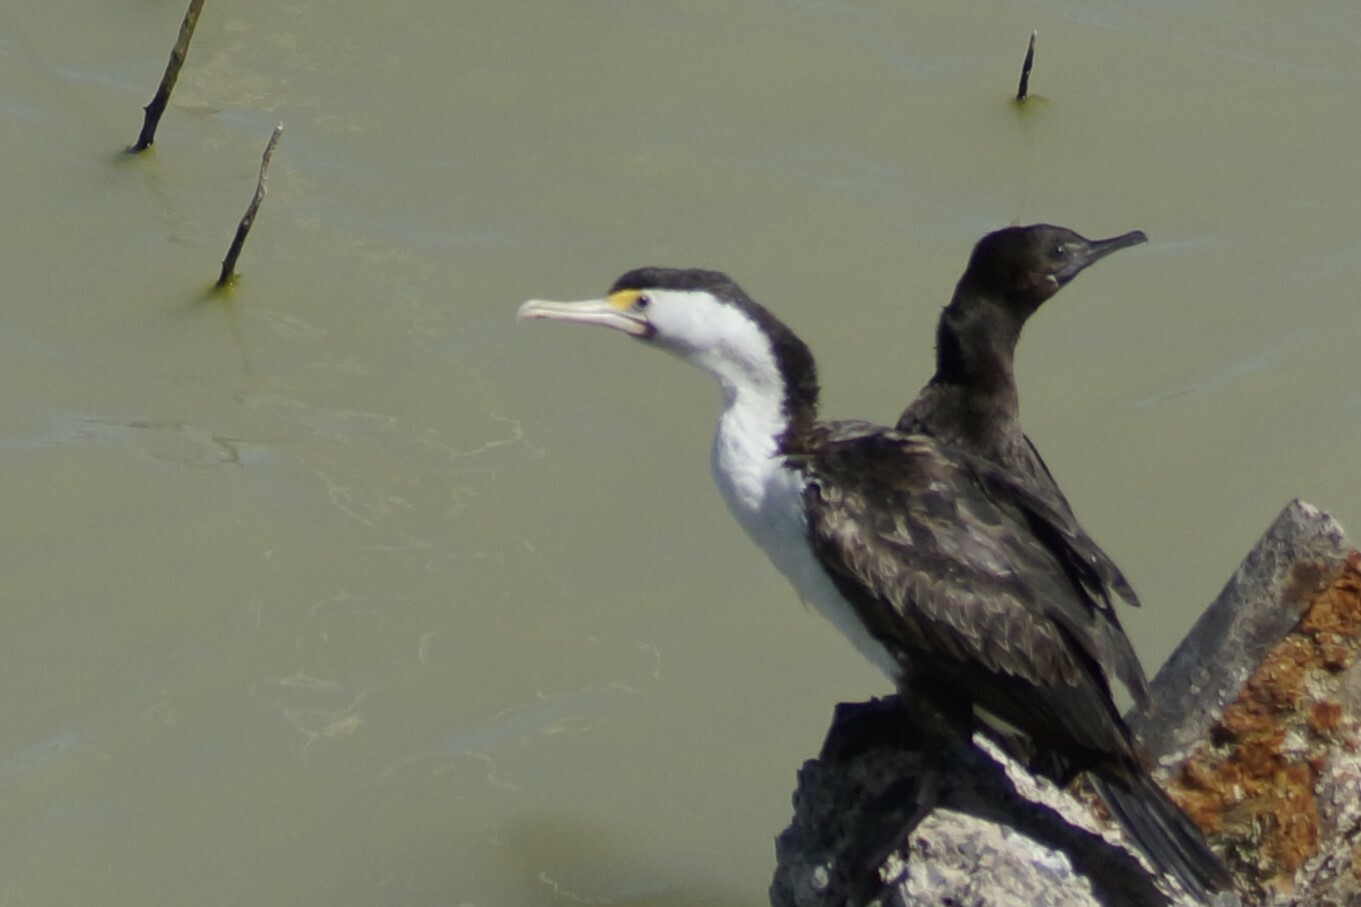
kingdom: Animalia
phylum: Chordata
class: Aves
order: Suliformes
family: Phalacrocoracidae
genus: Phalacrocorax
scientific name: Phalacrocorax varius
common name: Pied cormorant
